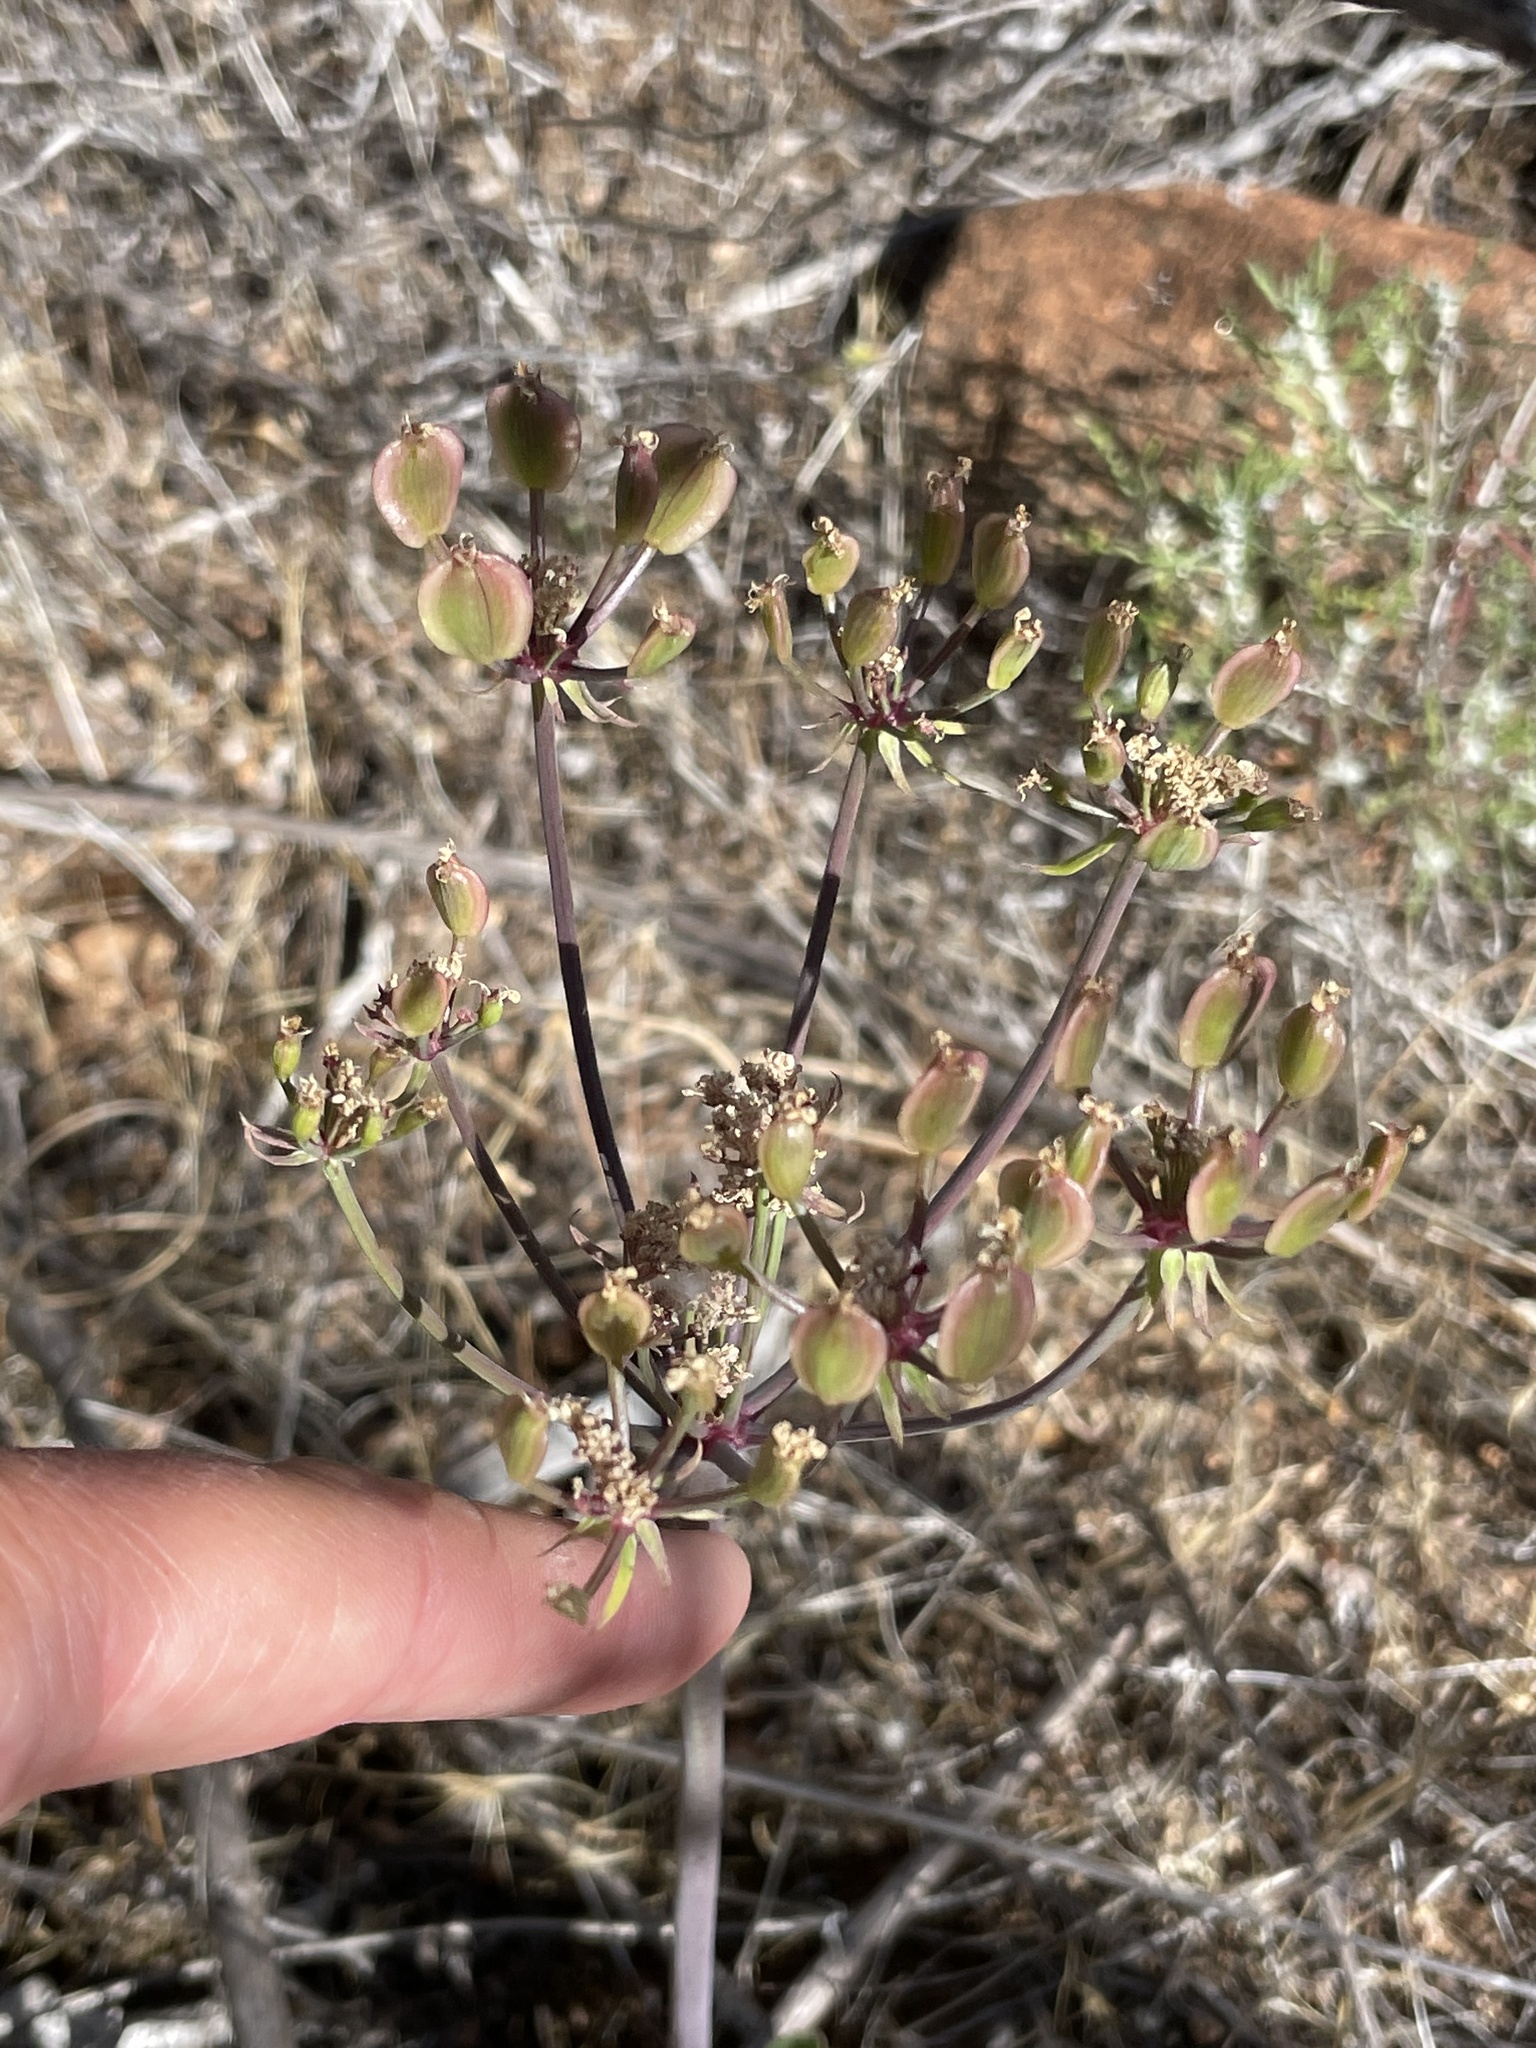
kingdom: Plantae
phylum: Tracheophyta
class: Magnoliopsida
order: Apiales
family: Apiaceae
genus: Lomatium
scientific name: Lomatium lucidum
